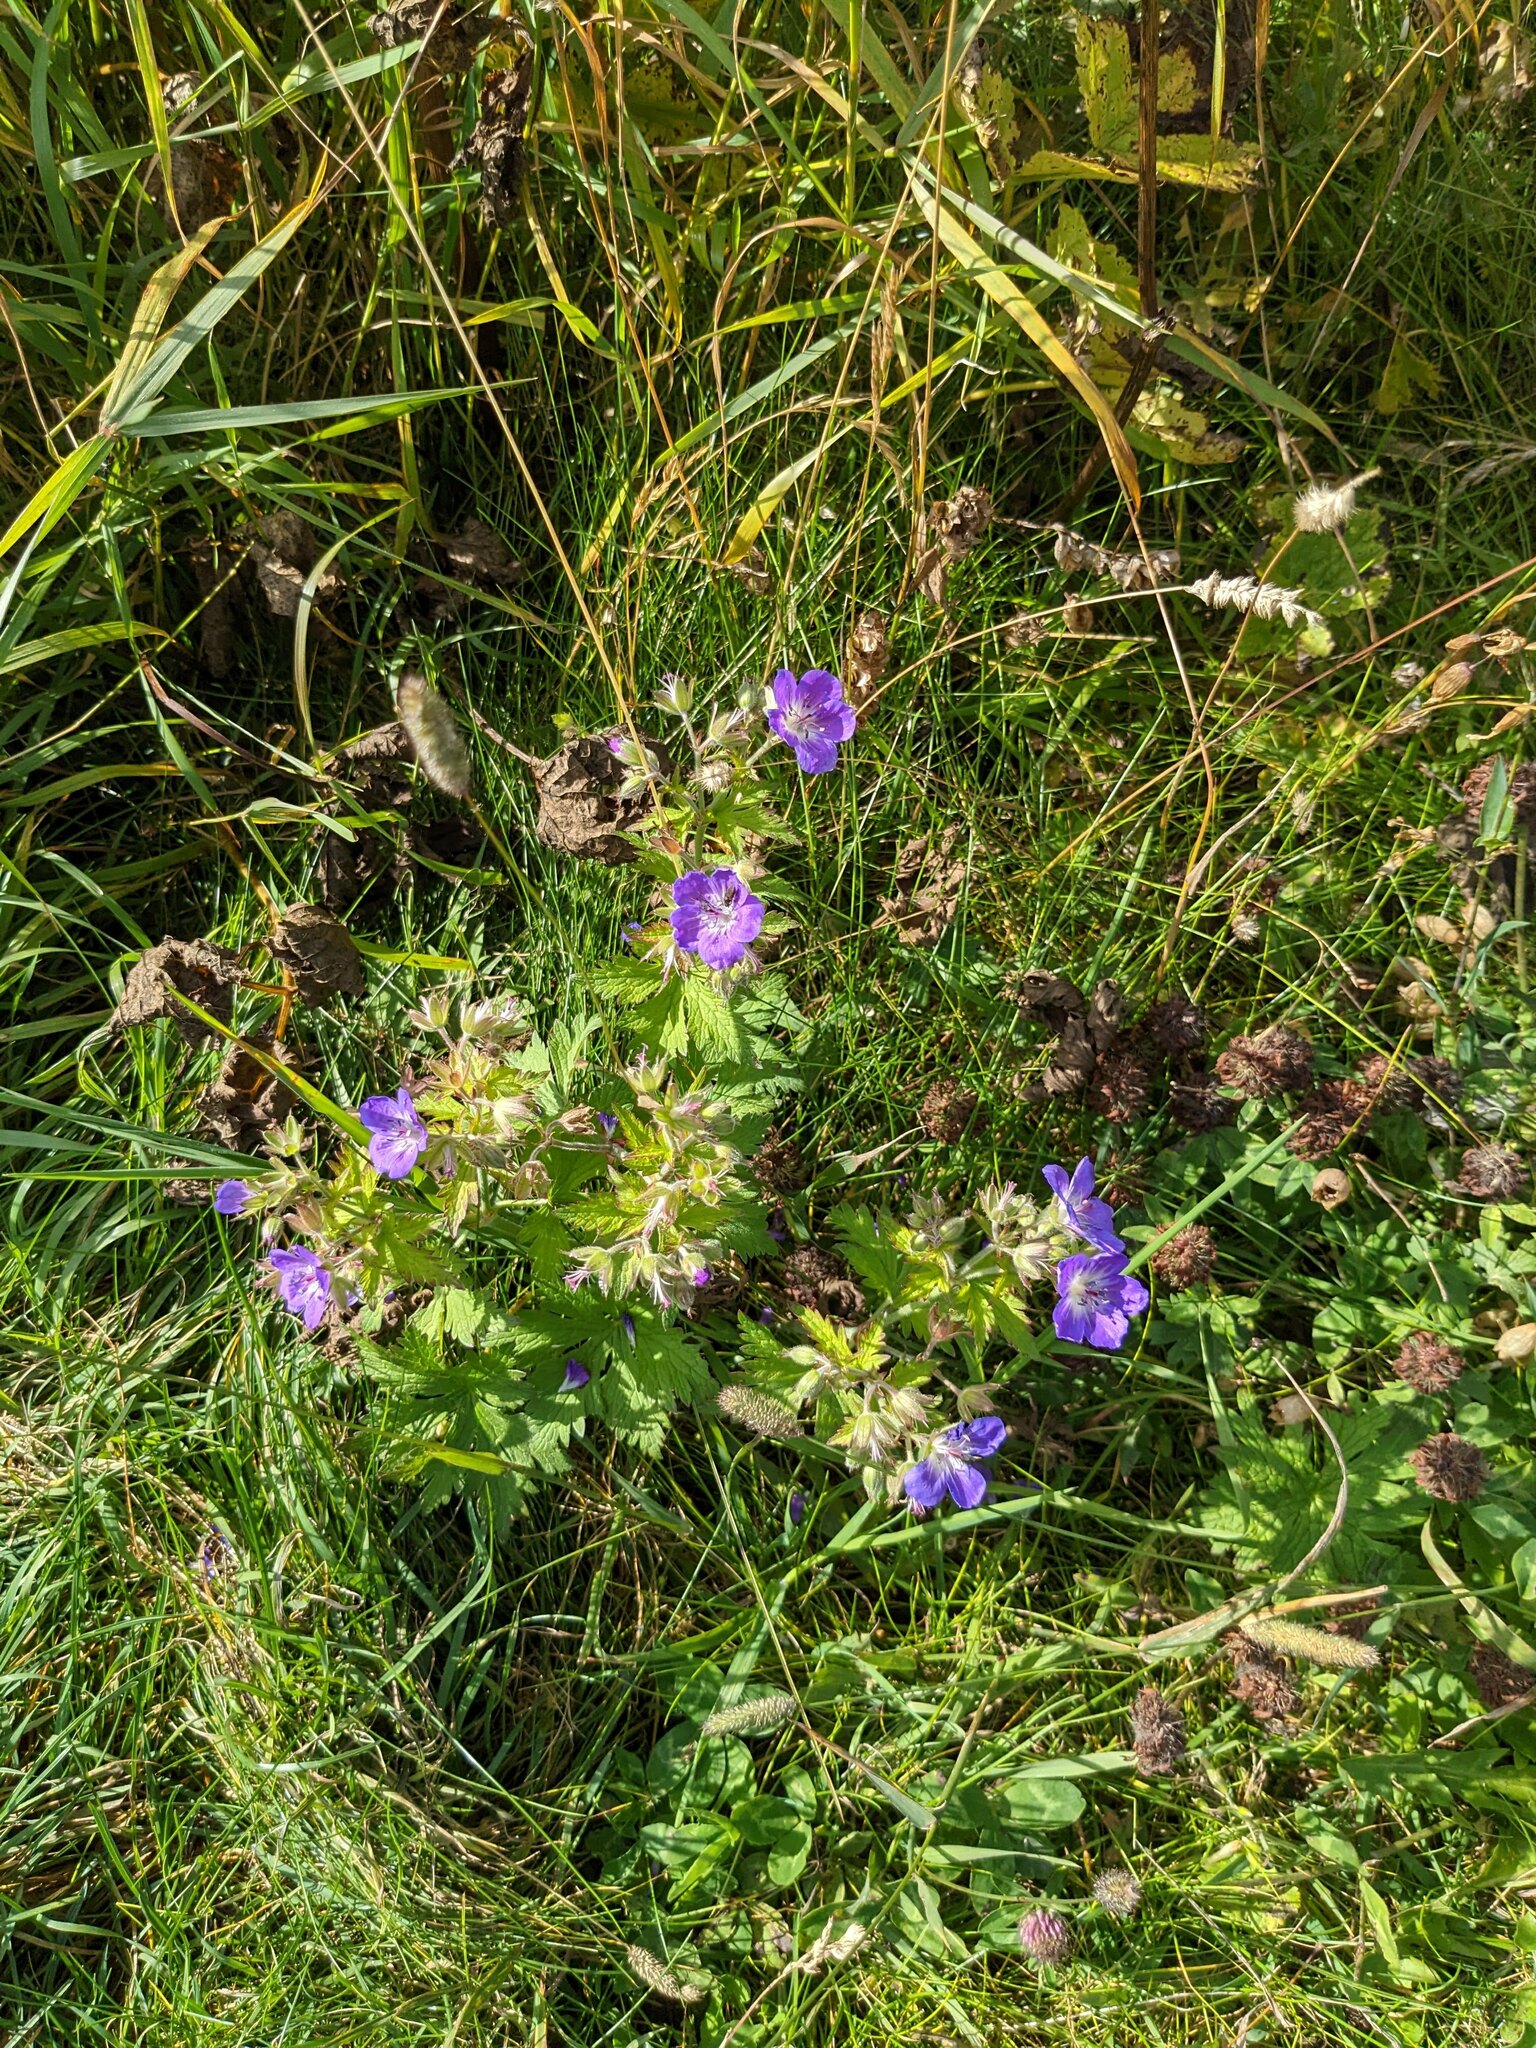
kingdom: Plantae
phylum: Tracheophyta
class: Magnoliopsida
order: Geraniales
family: Geraniaceae
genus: Geranium
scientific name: Geranium sylvaticum
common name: Wood crane's-bill
